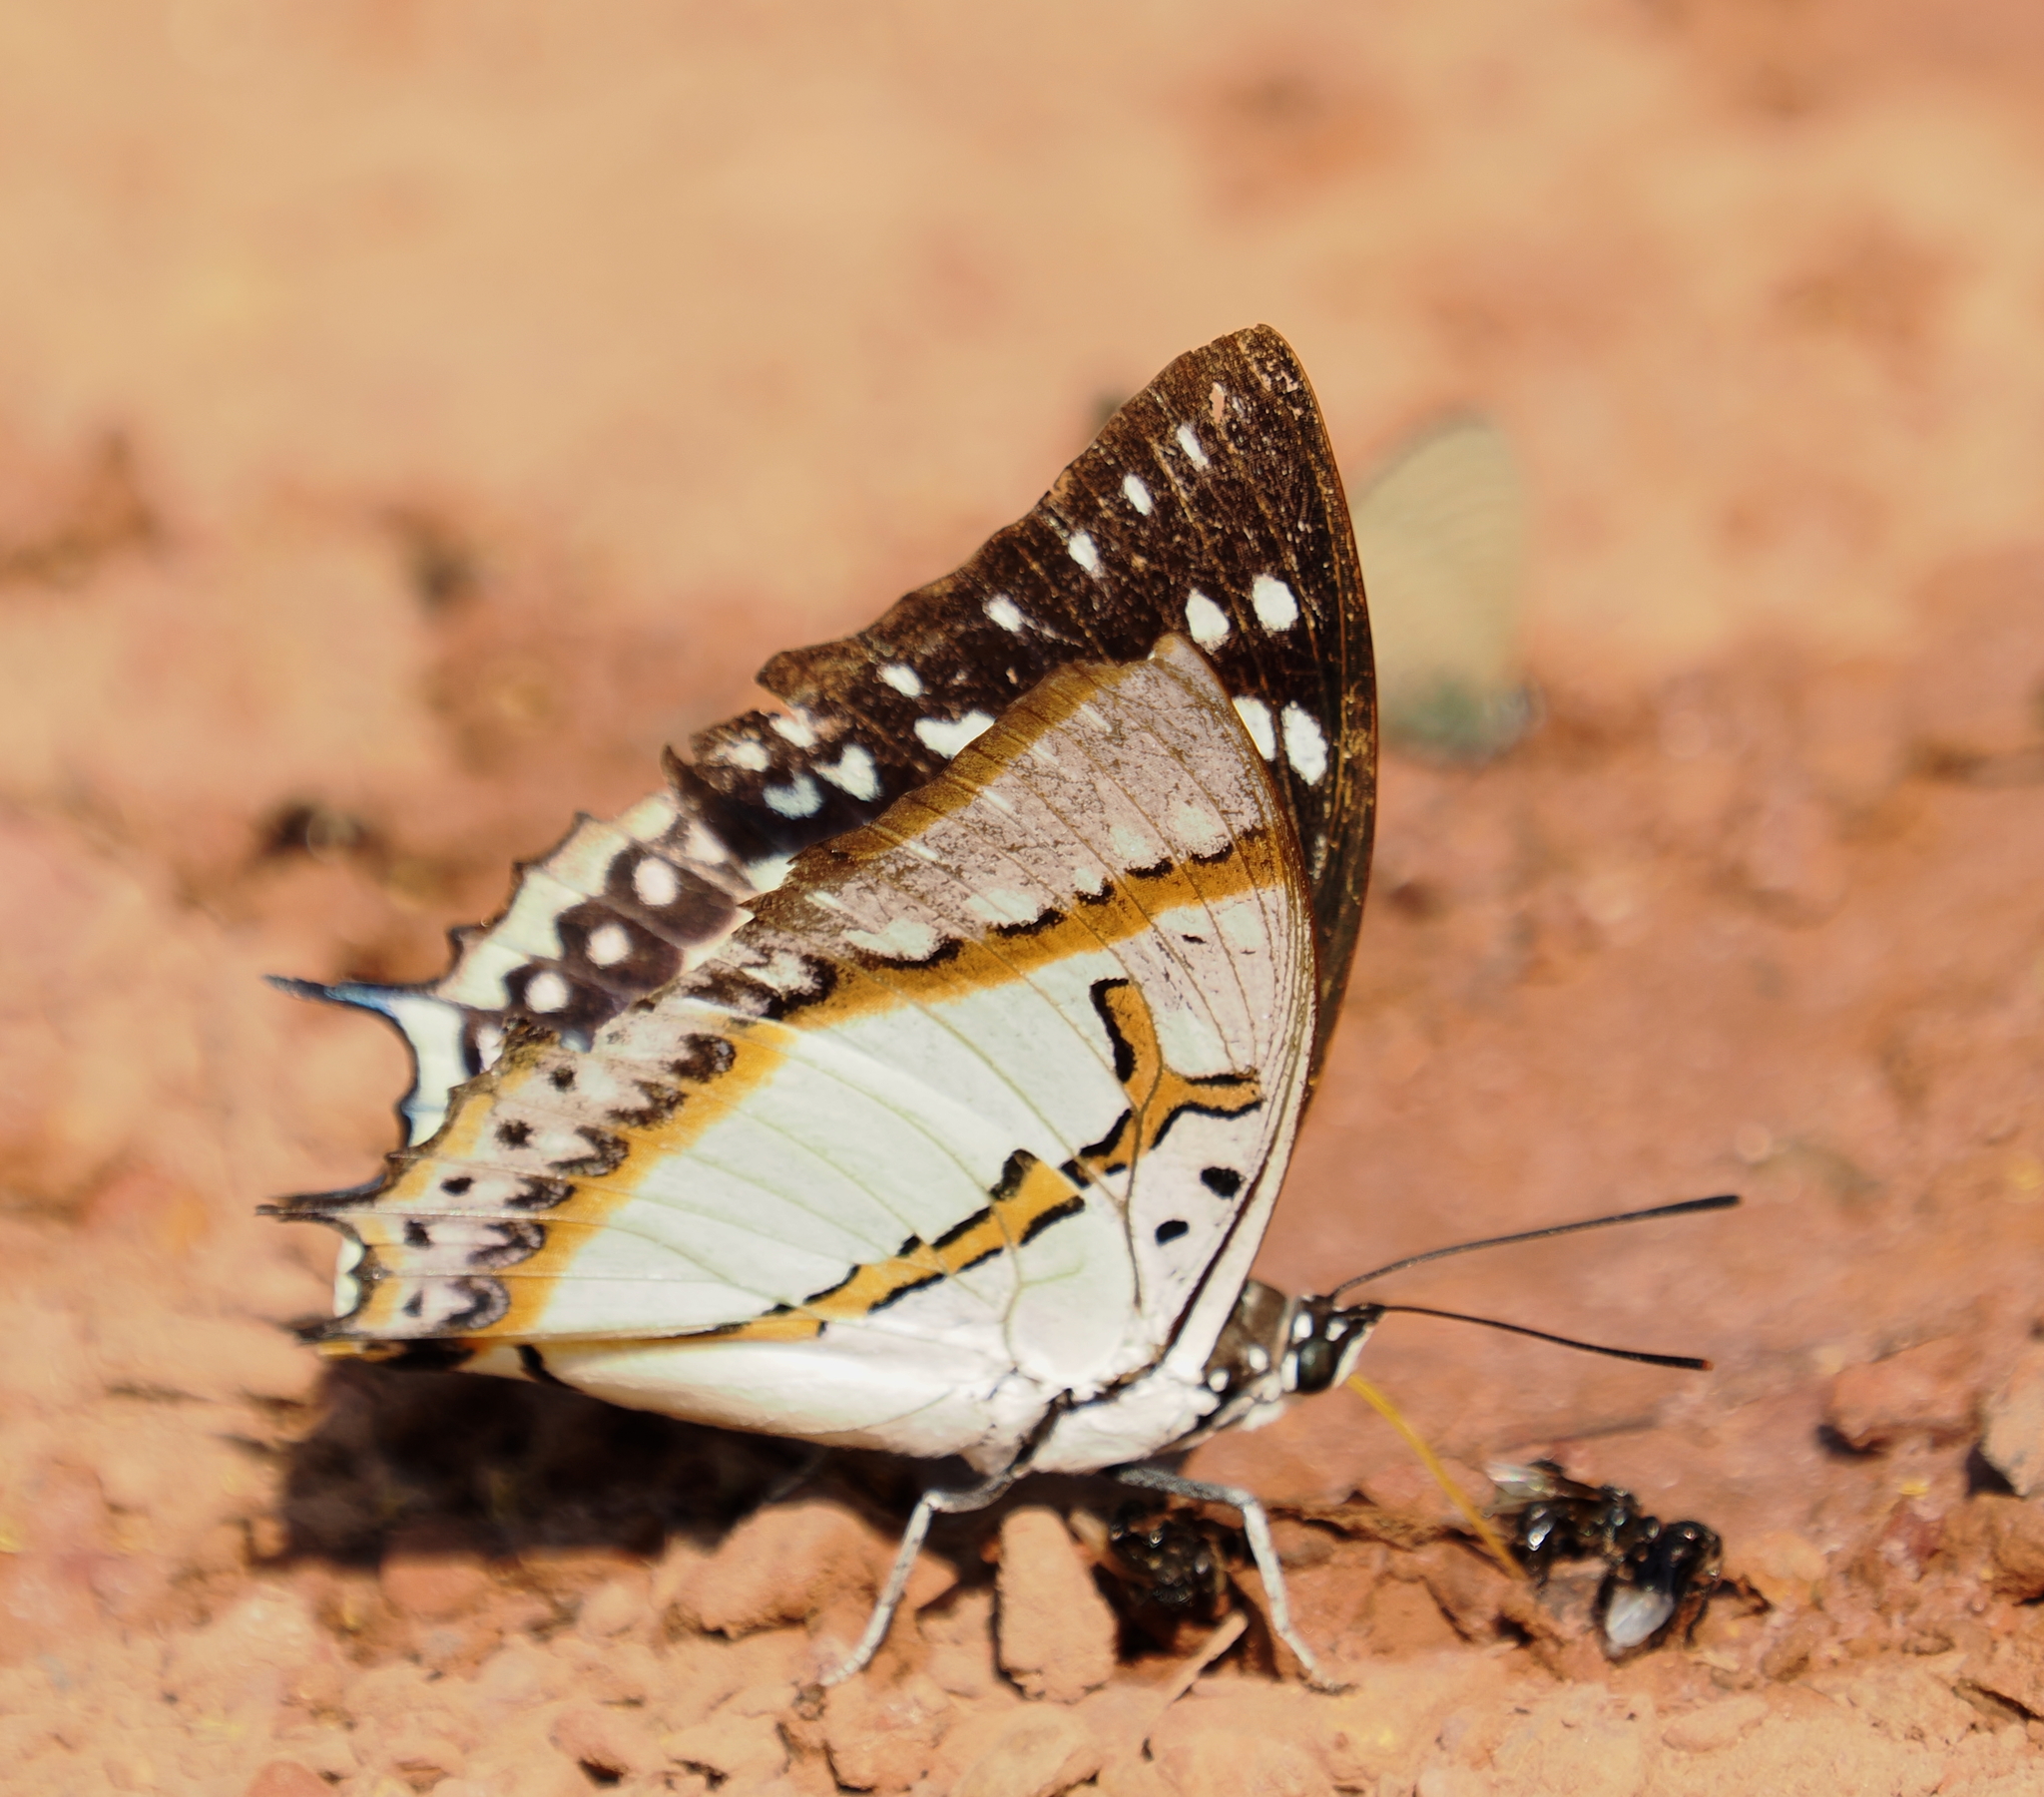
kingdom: Animalia
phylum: Arthropoda
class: Insecta
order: Lepidoptera
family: Nymphalidae
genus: Polyura
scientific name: Polyura eudamippus
